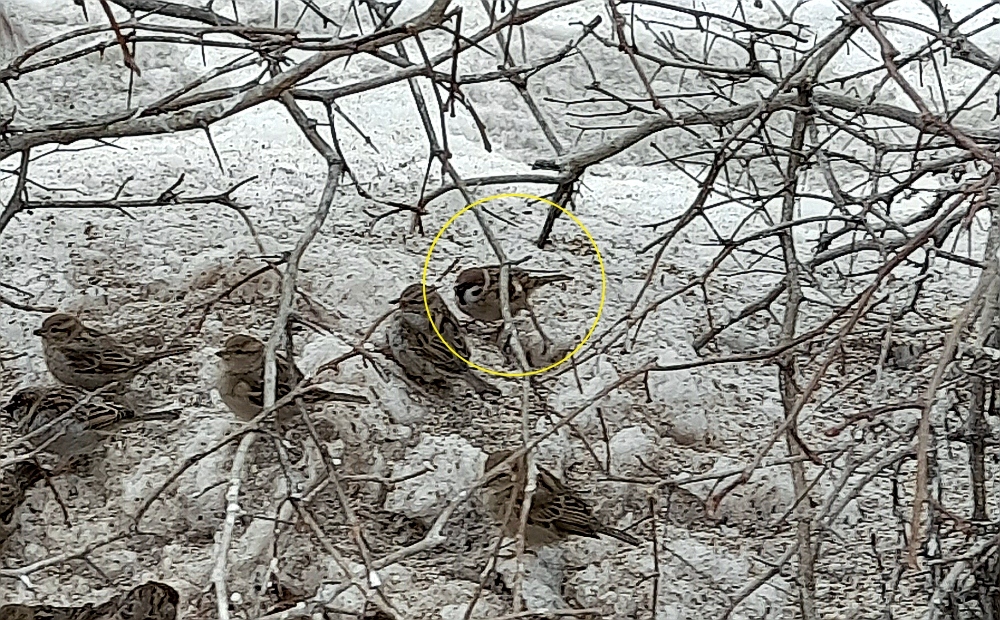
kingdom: Animalia
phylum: Chordata
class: Aves
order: Passeriformes
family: Passeridae
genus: Passer
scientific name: Passer montanus
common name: Eurasian tree sparrow
